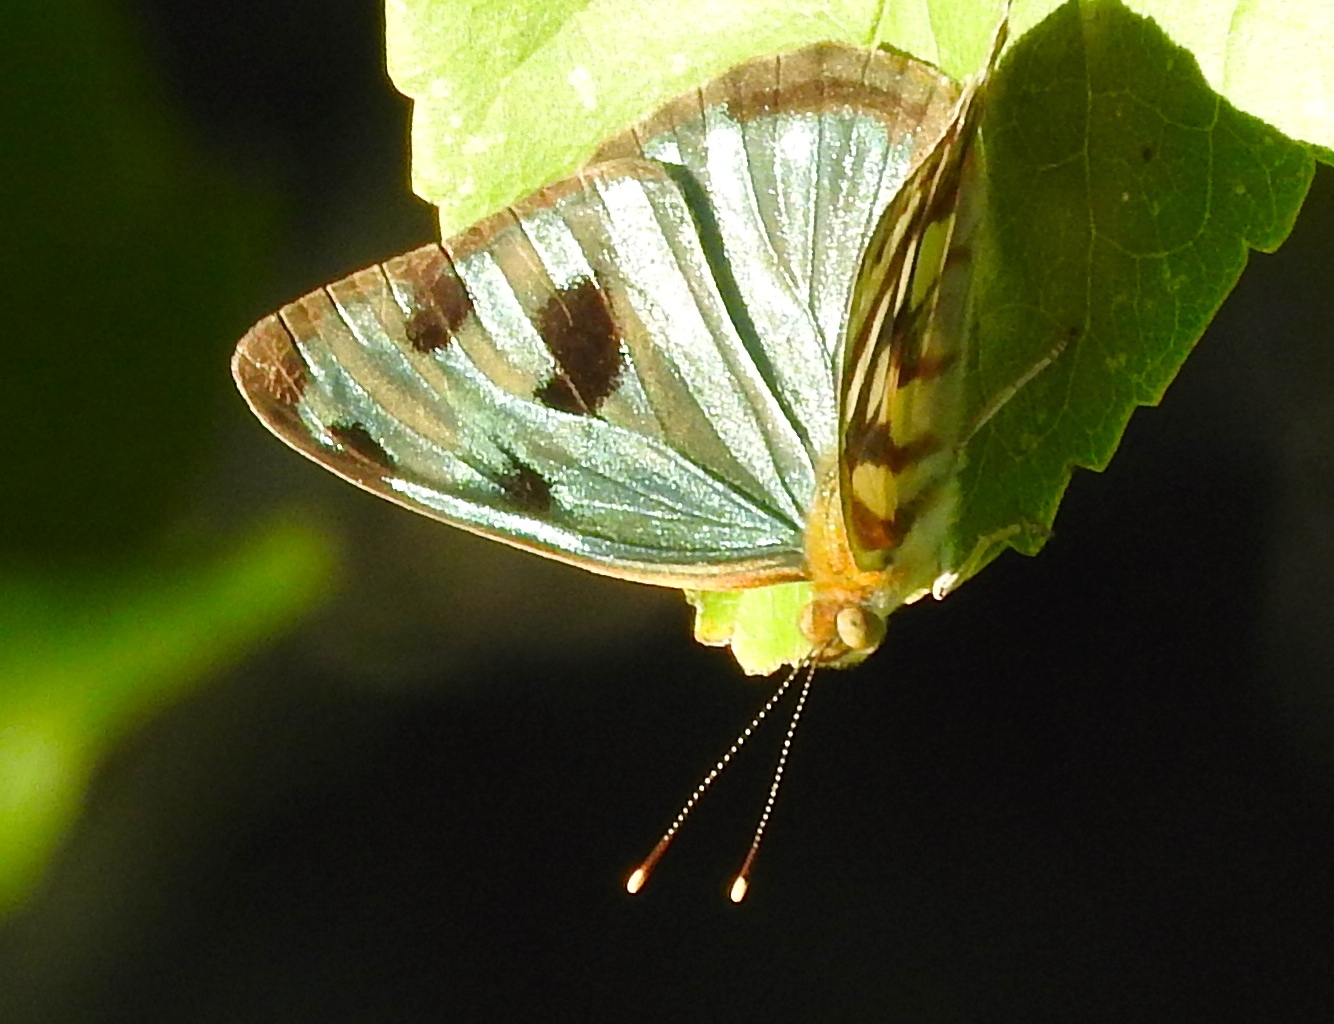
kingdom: Animalia
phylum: Arthropoda
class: Insecta
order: Lepidoptera
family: Nymphalidae
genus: Dynamine
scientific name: Dynamine mylitta
